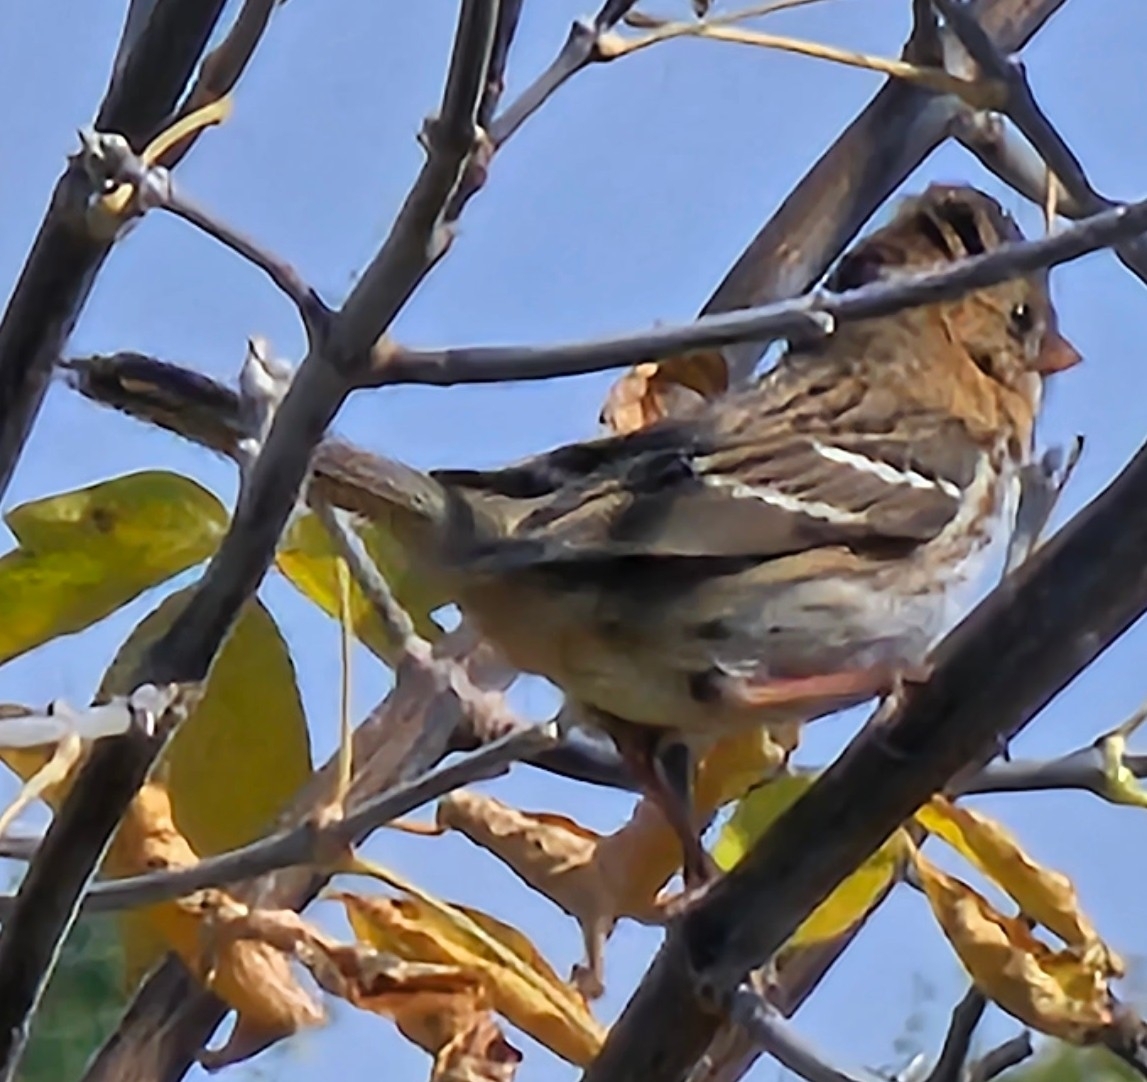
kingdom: Animalia
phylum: Chordata
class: Aves
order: Passeriformes
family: Passerellidae
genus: Zonotrichia
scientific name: Zonotrichia querula
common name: Harris's sparrow
